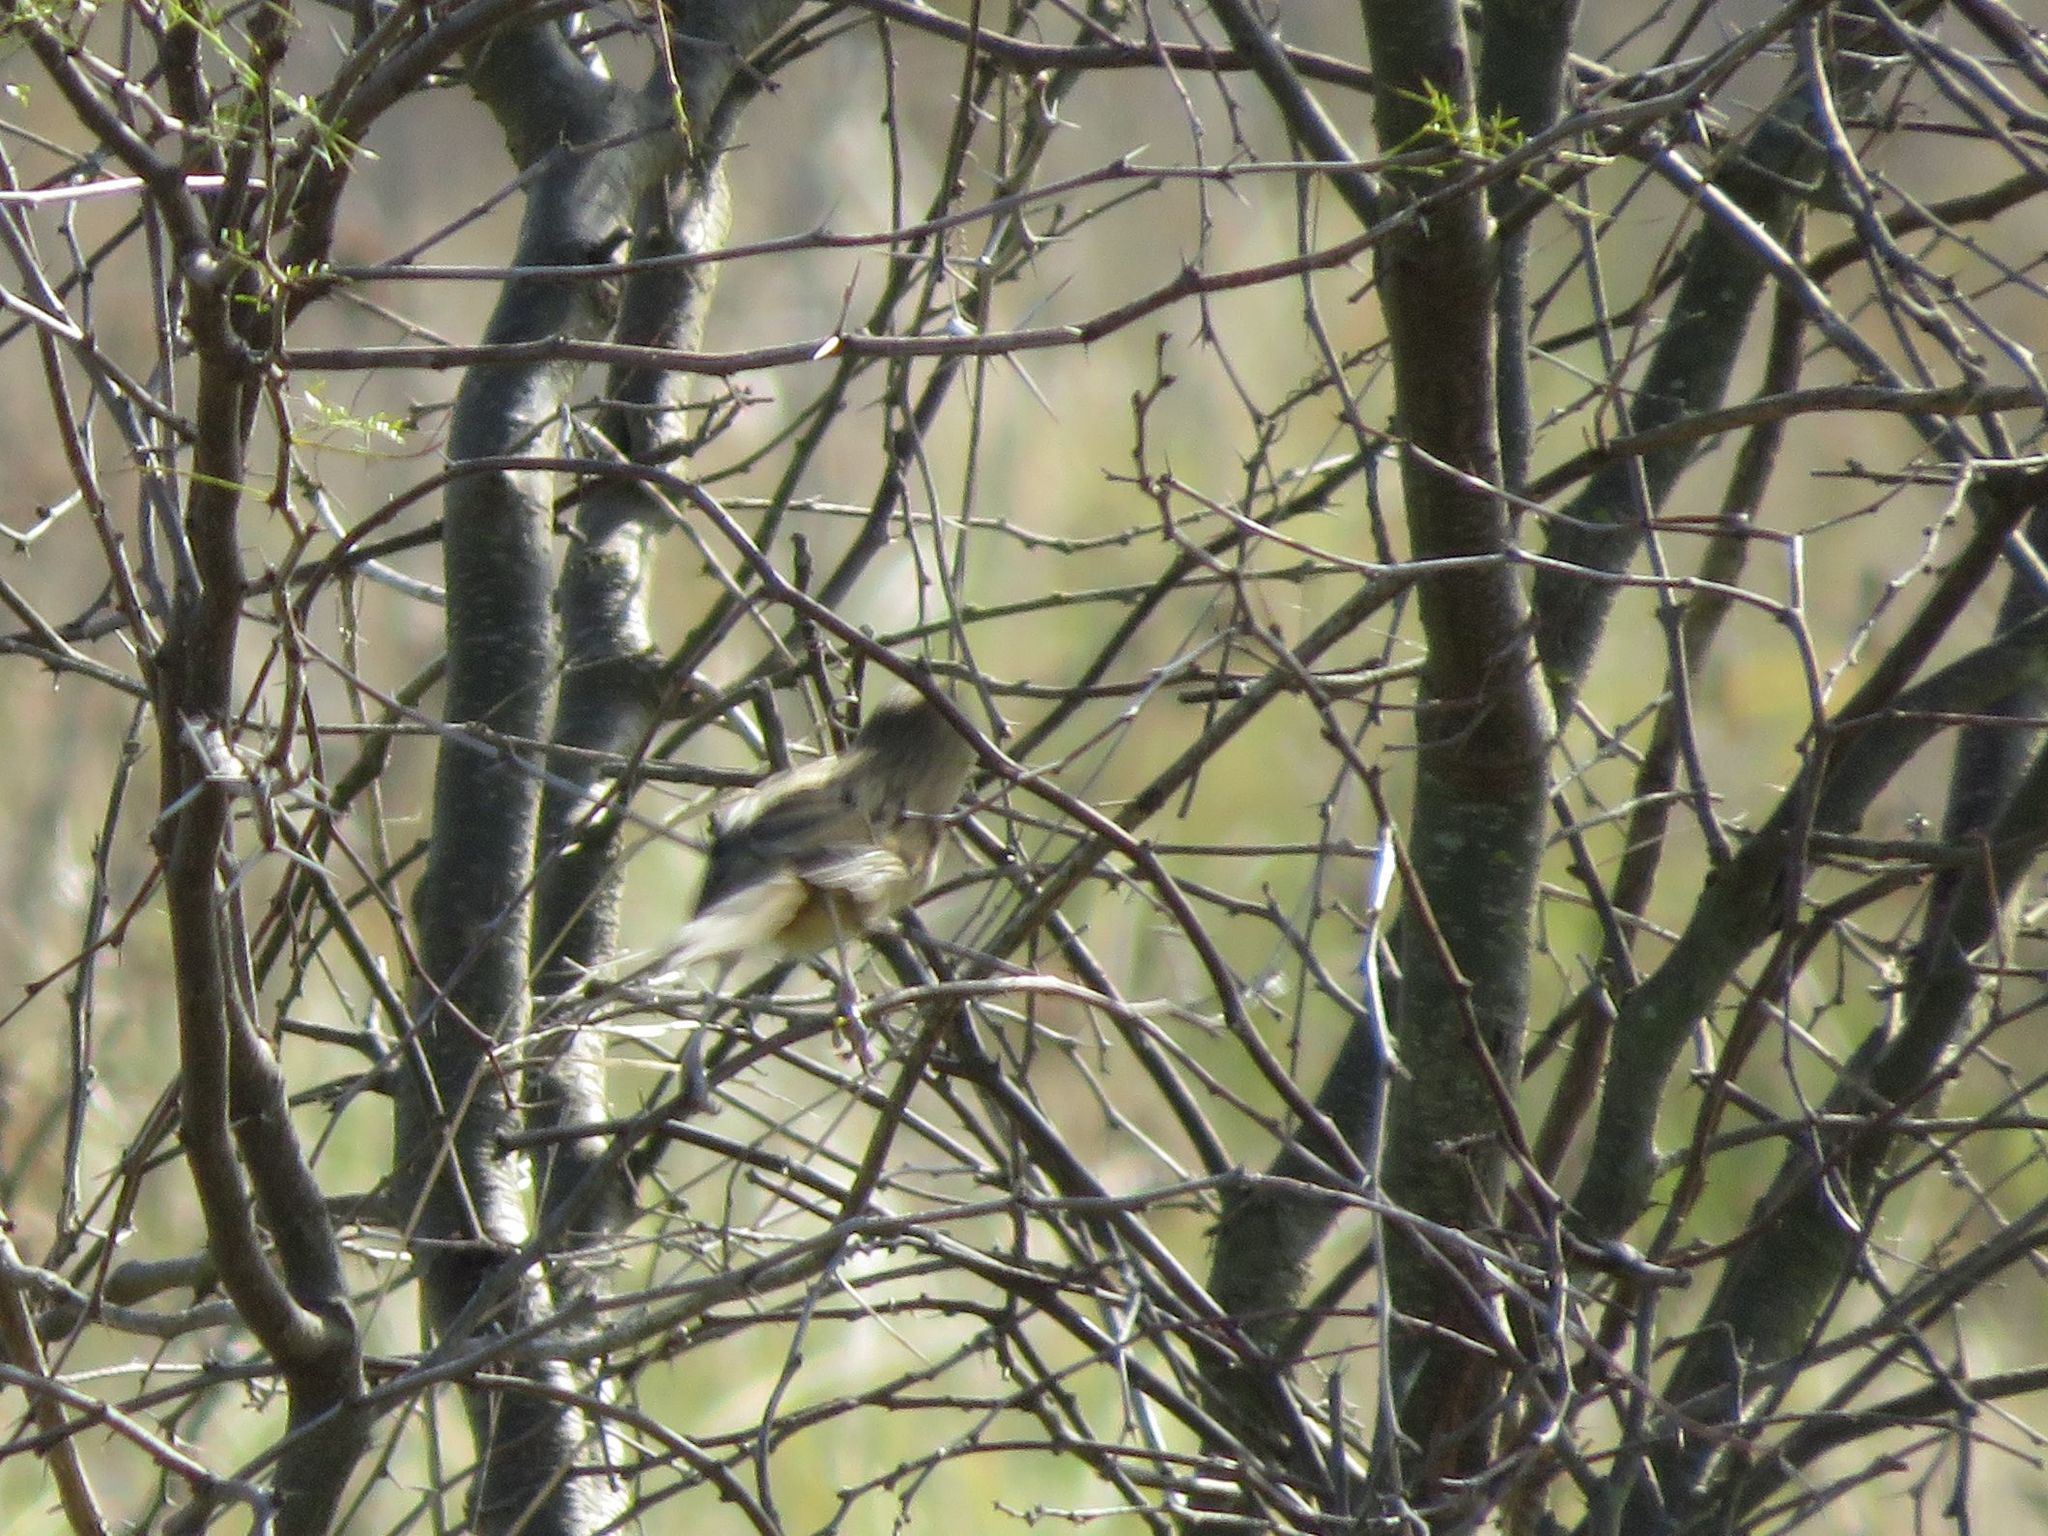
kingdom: Animalia
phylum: Chordata
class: Aves
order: Passeriformes
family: Furnariidae
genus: Schoeniophylax
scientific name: Schoeniophylax phryganophilus
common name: Chotoy spinetail
